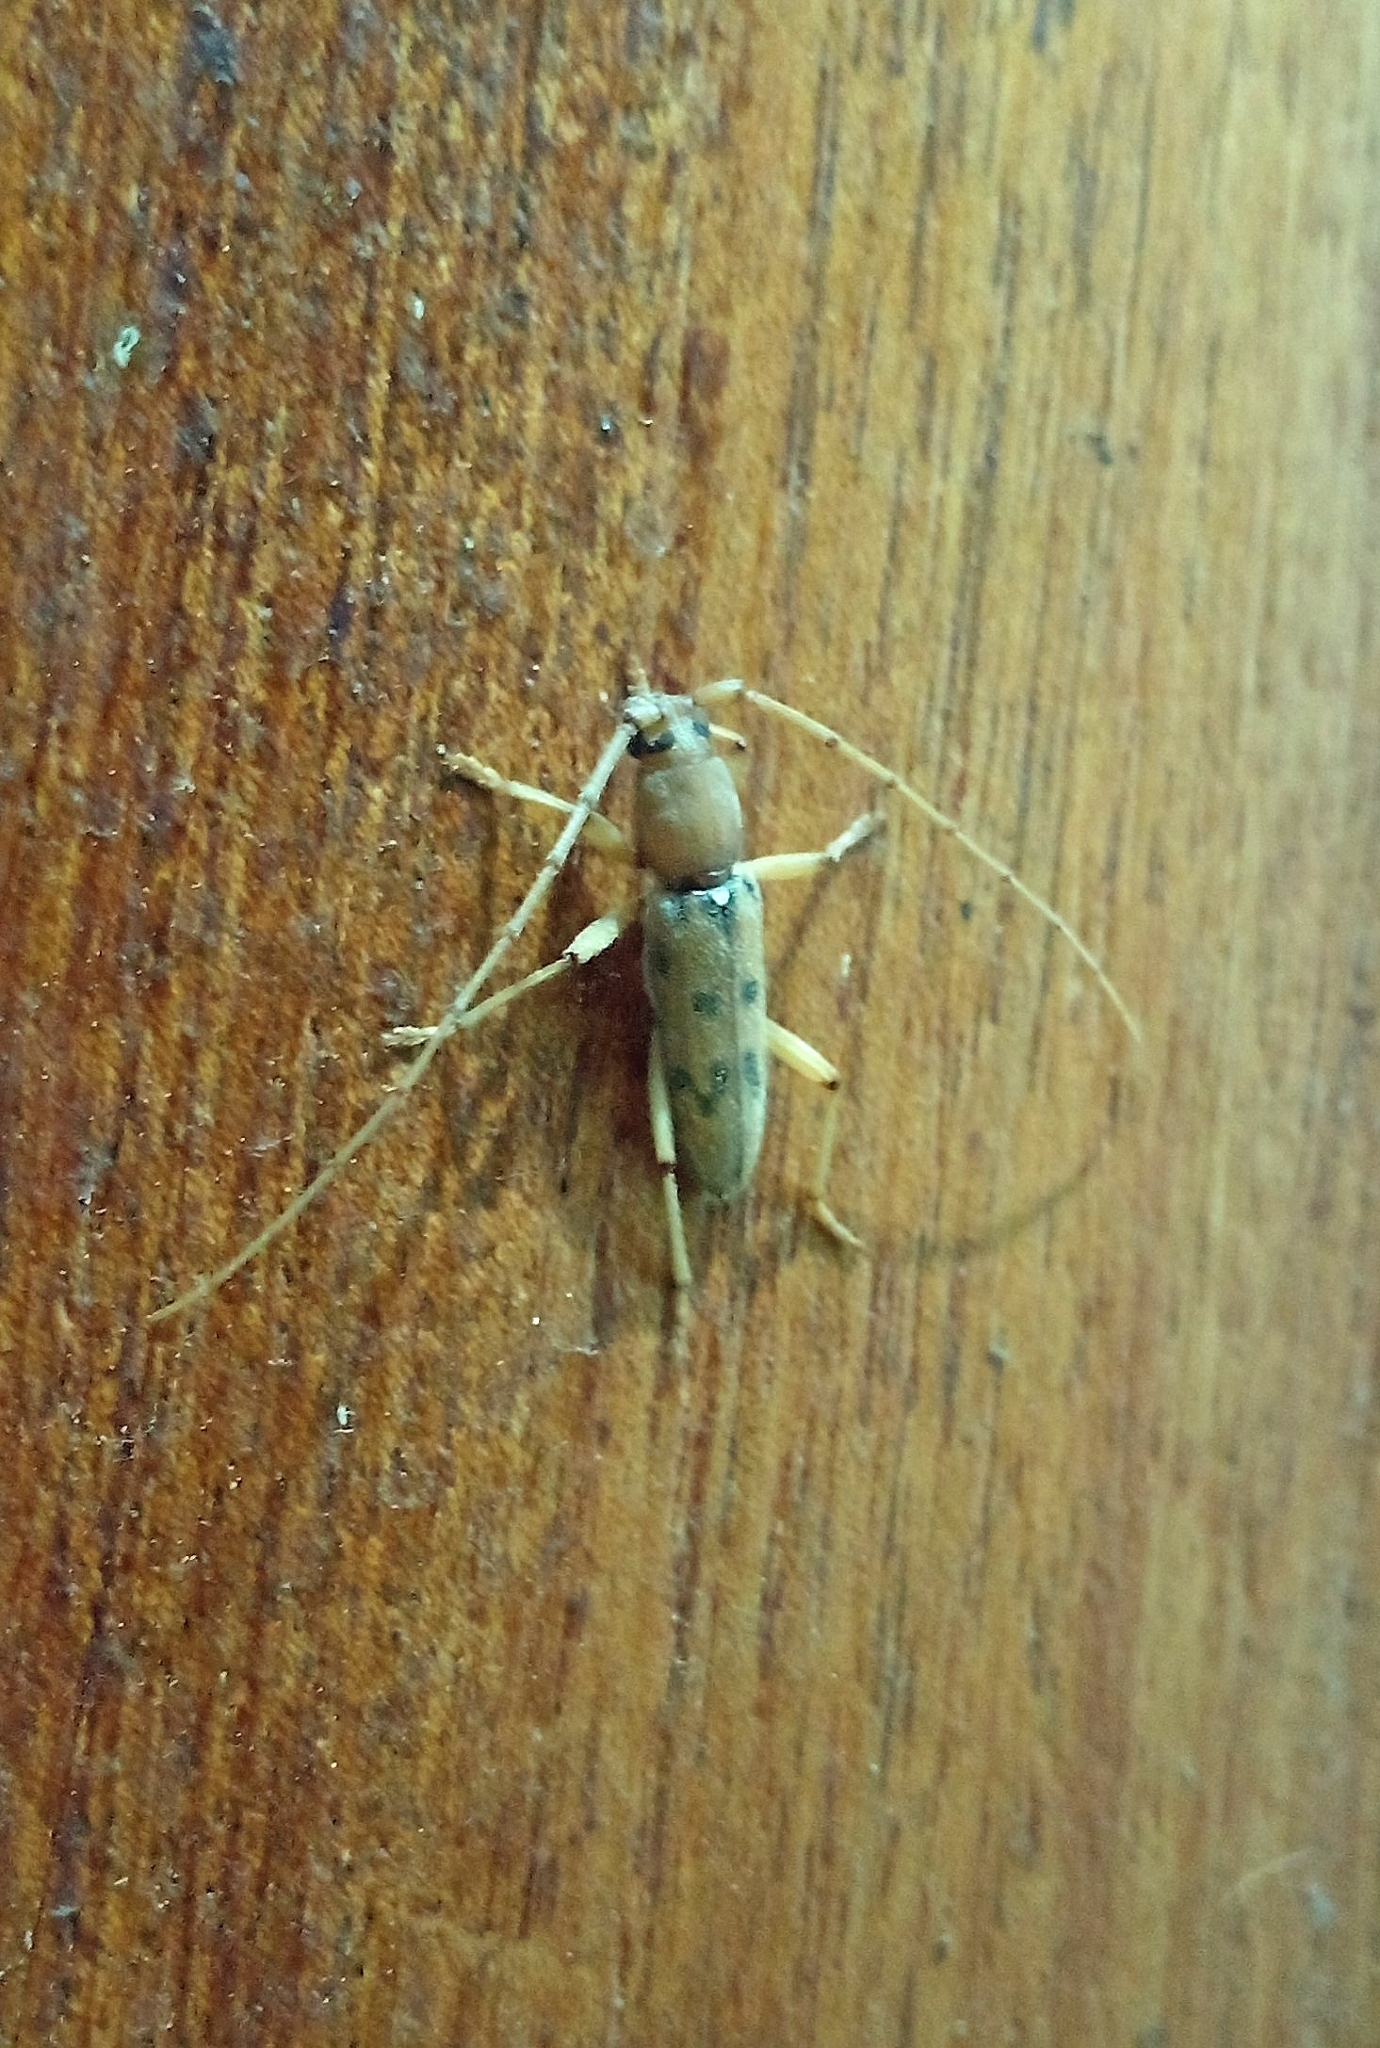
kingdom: Animalia
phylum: Arthropoda
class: Insecta
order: Coleoptera
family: Cerambycidae
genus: Achryson
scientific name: Achryson surinamum
